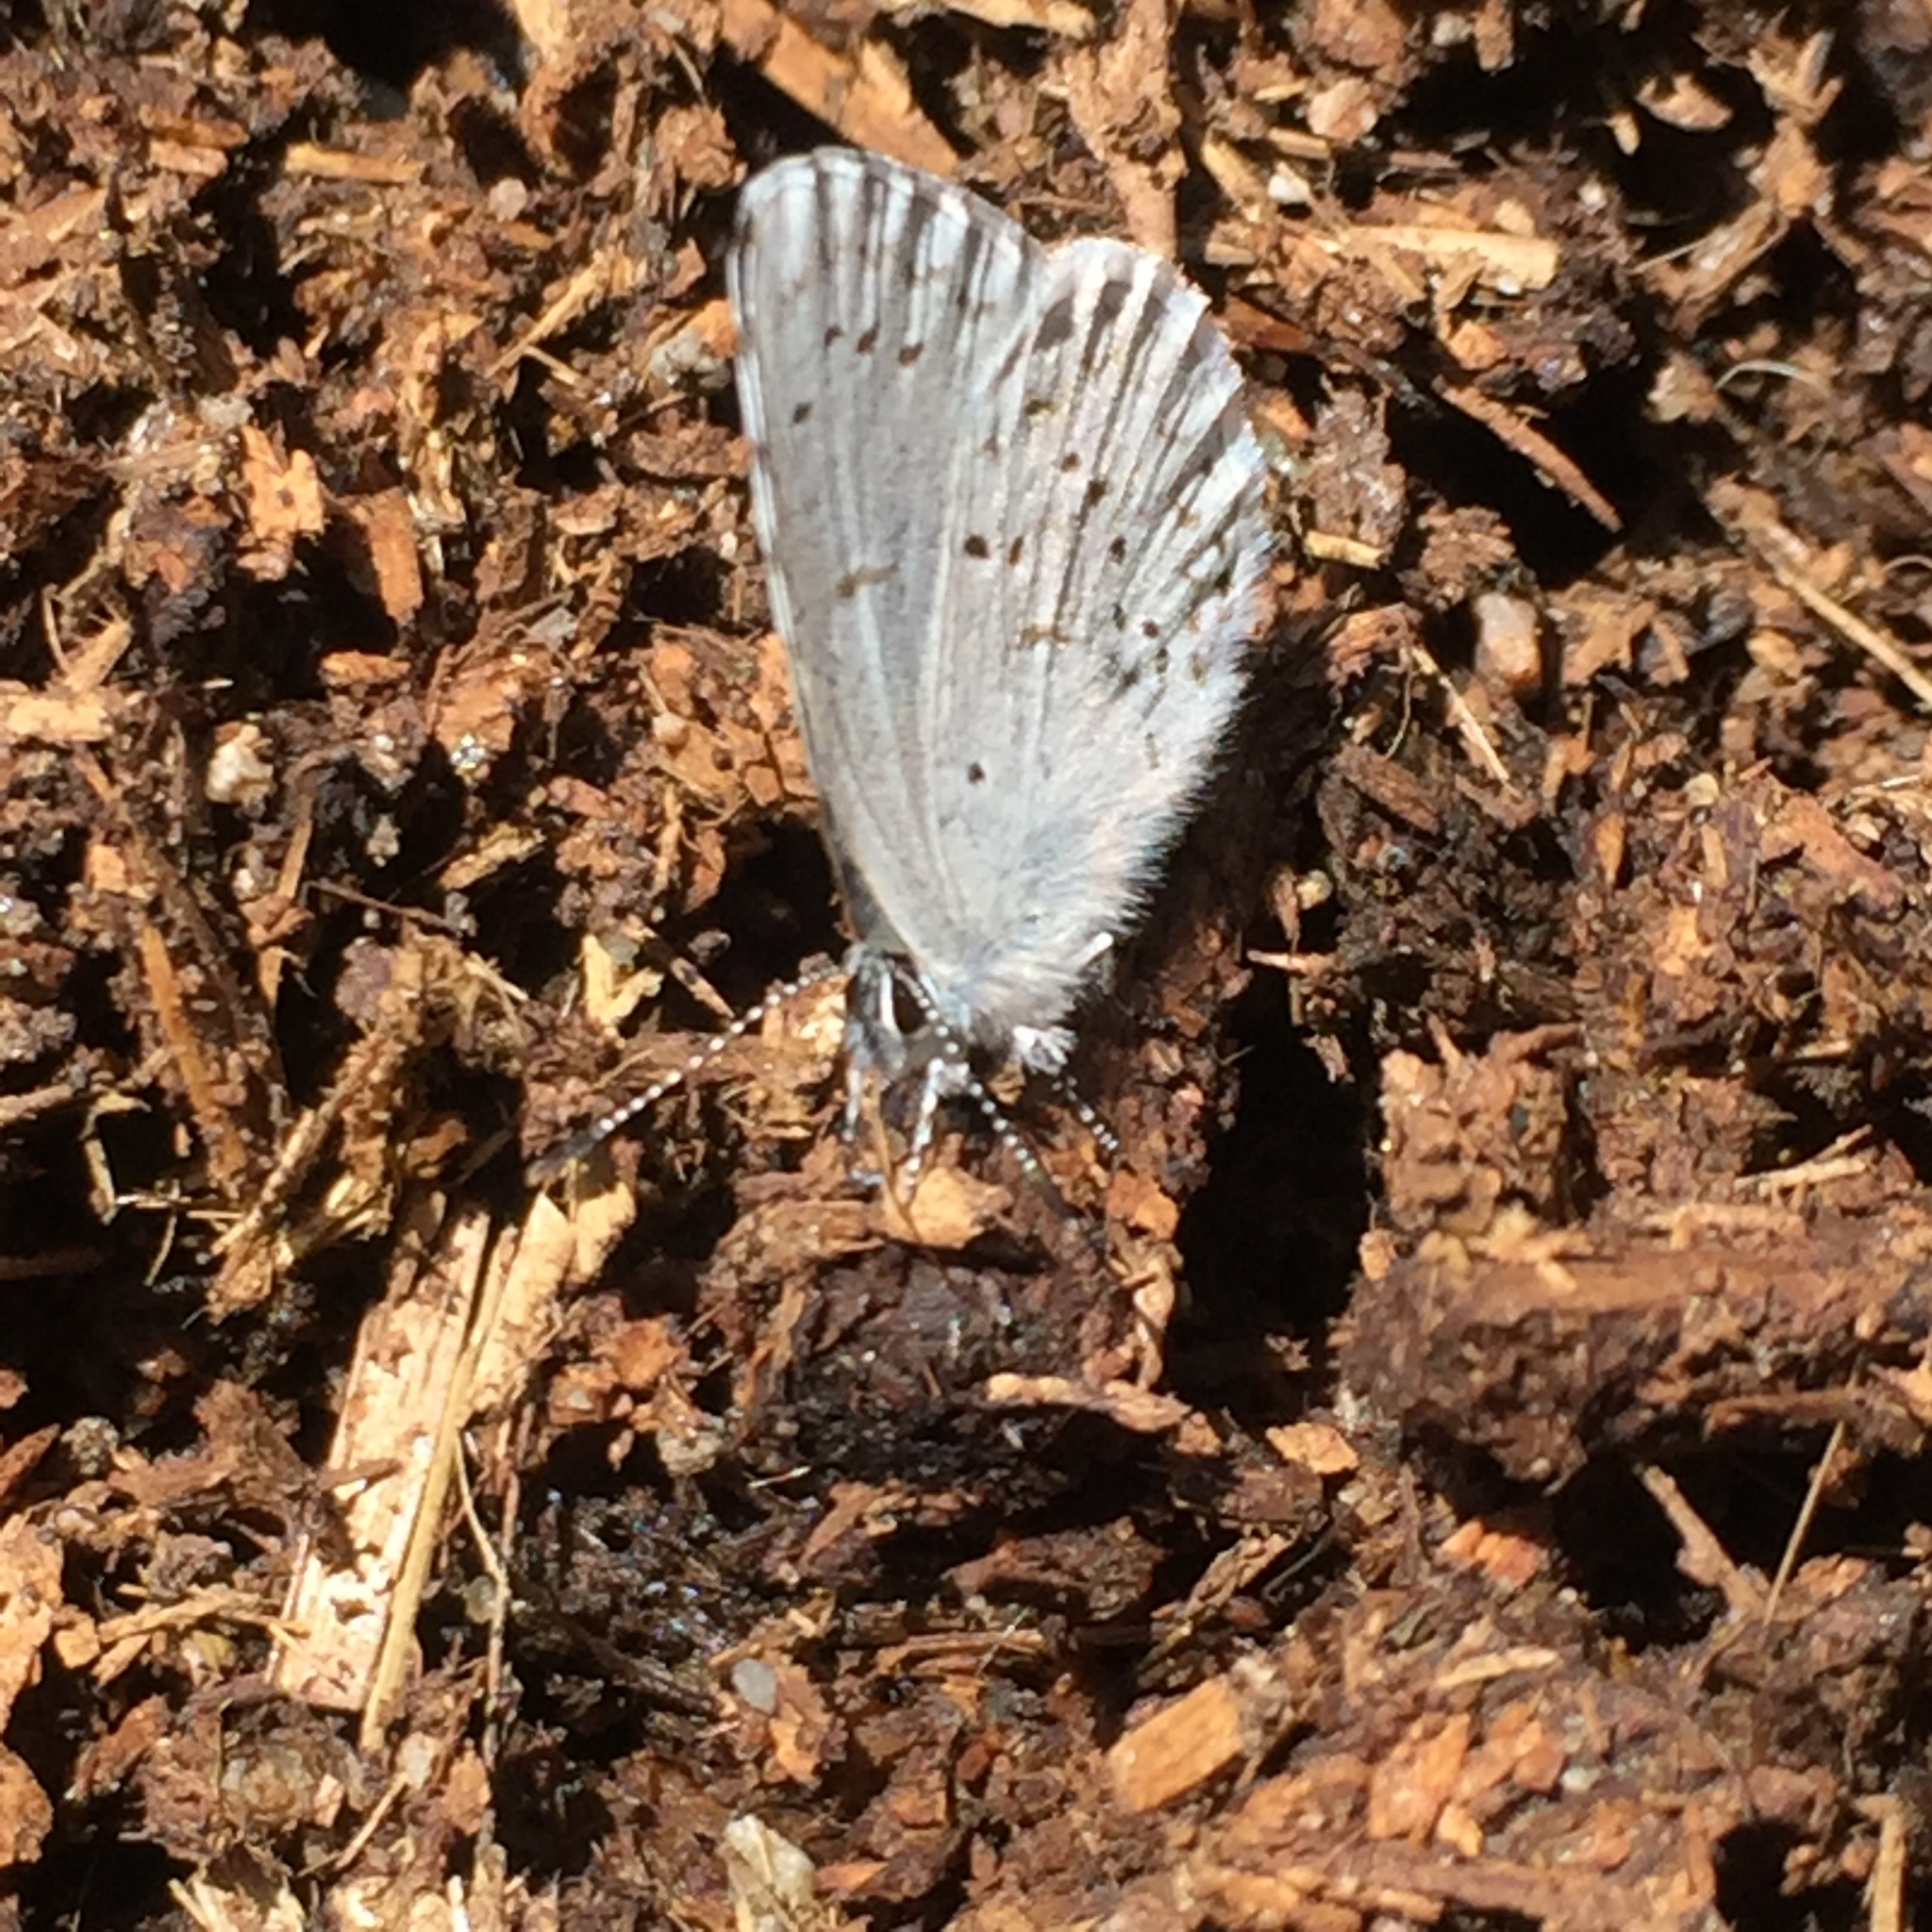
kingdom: Animalia
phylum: Arthropoda
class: Insecta
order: Lepidoptera
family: Lycaenidae
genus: Celastrina
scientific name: Celastrina ladon
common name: Spring azure
